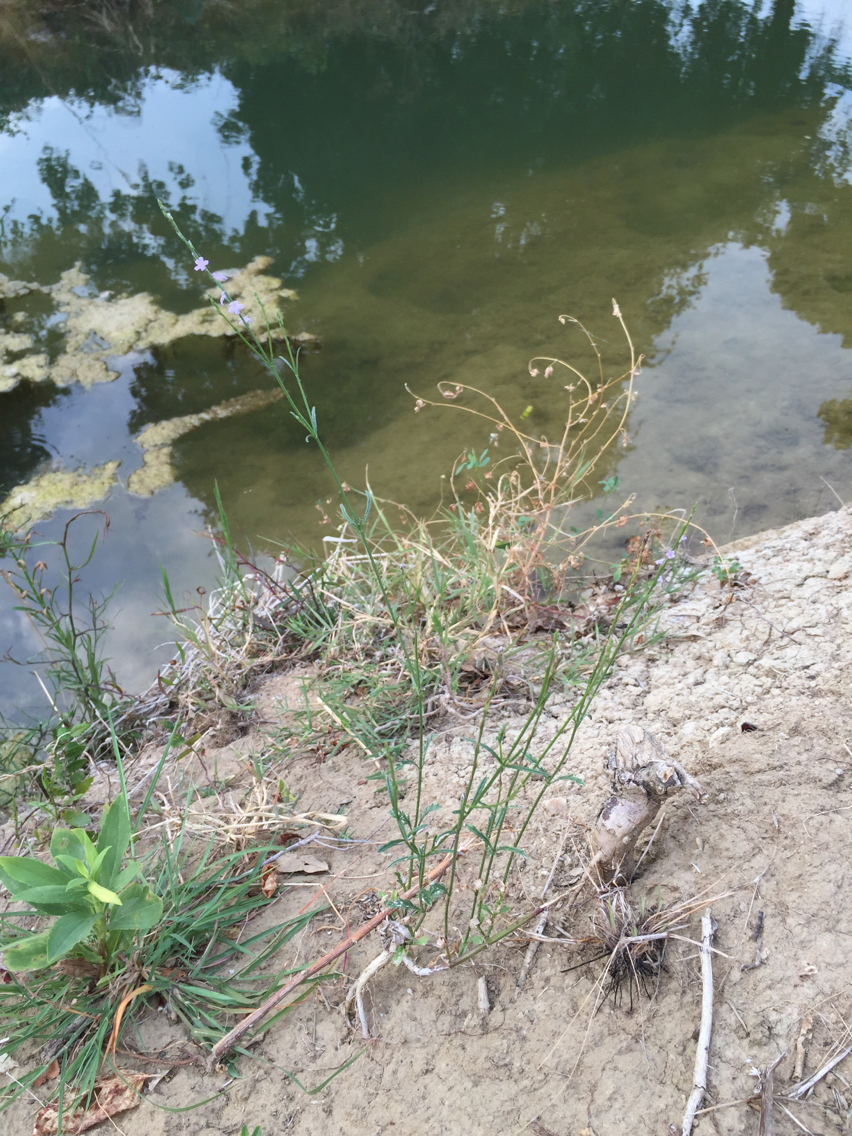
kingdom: Plantae
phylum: Tracheophyta
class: Magnoliopsida
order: Lamiales
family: Verbenaceae
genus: Verbena
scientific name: Verbena halei
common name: Texas vervain
